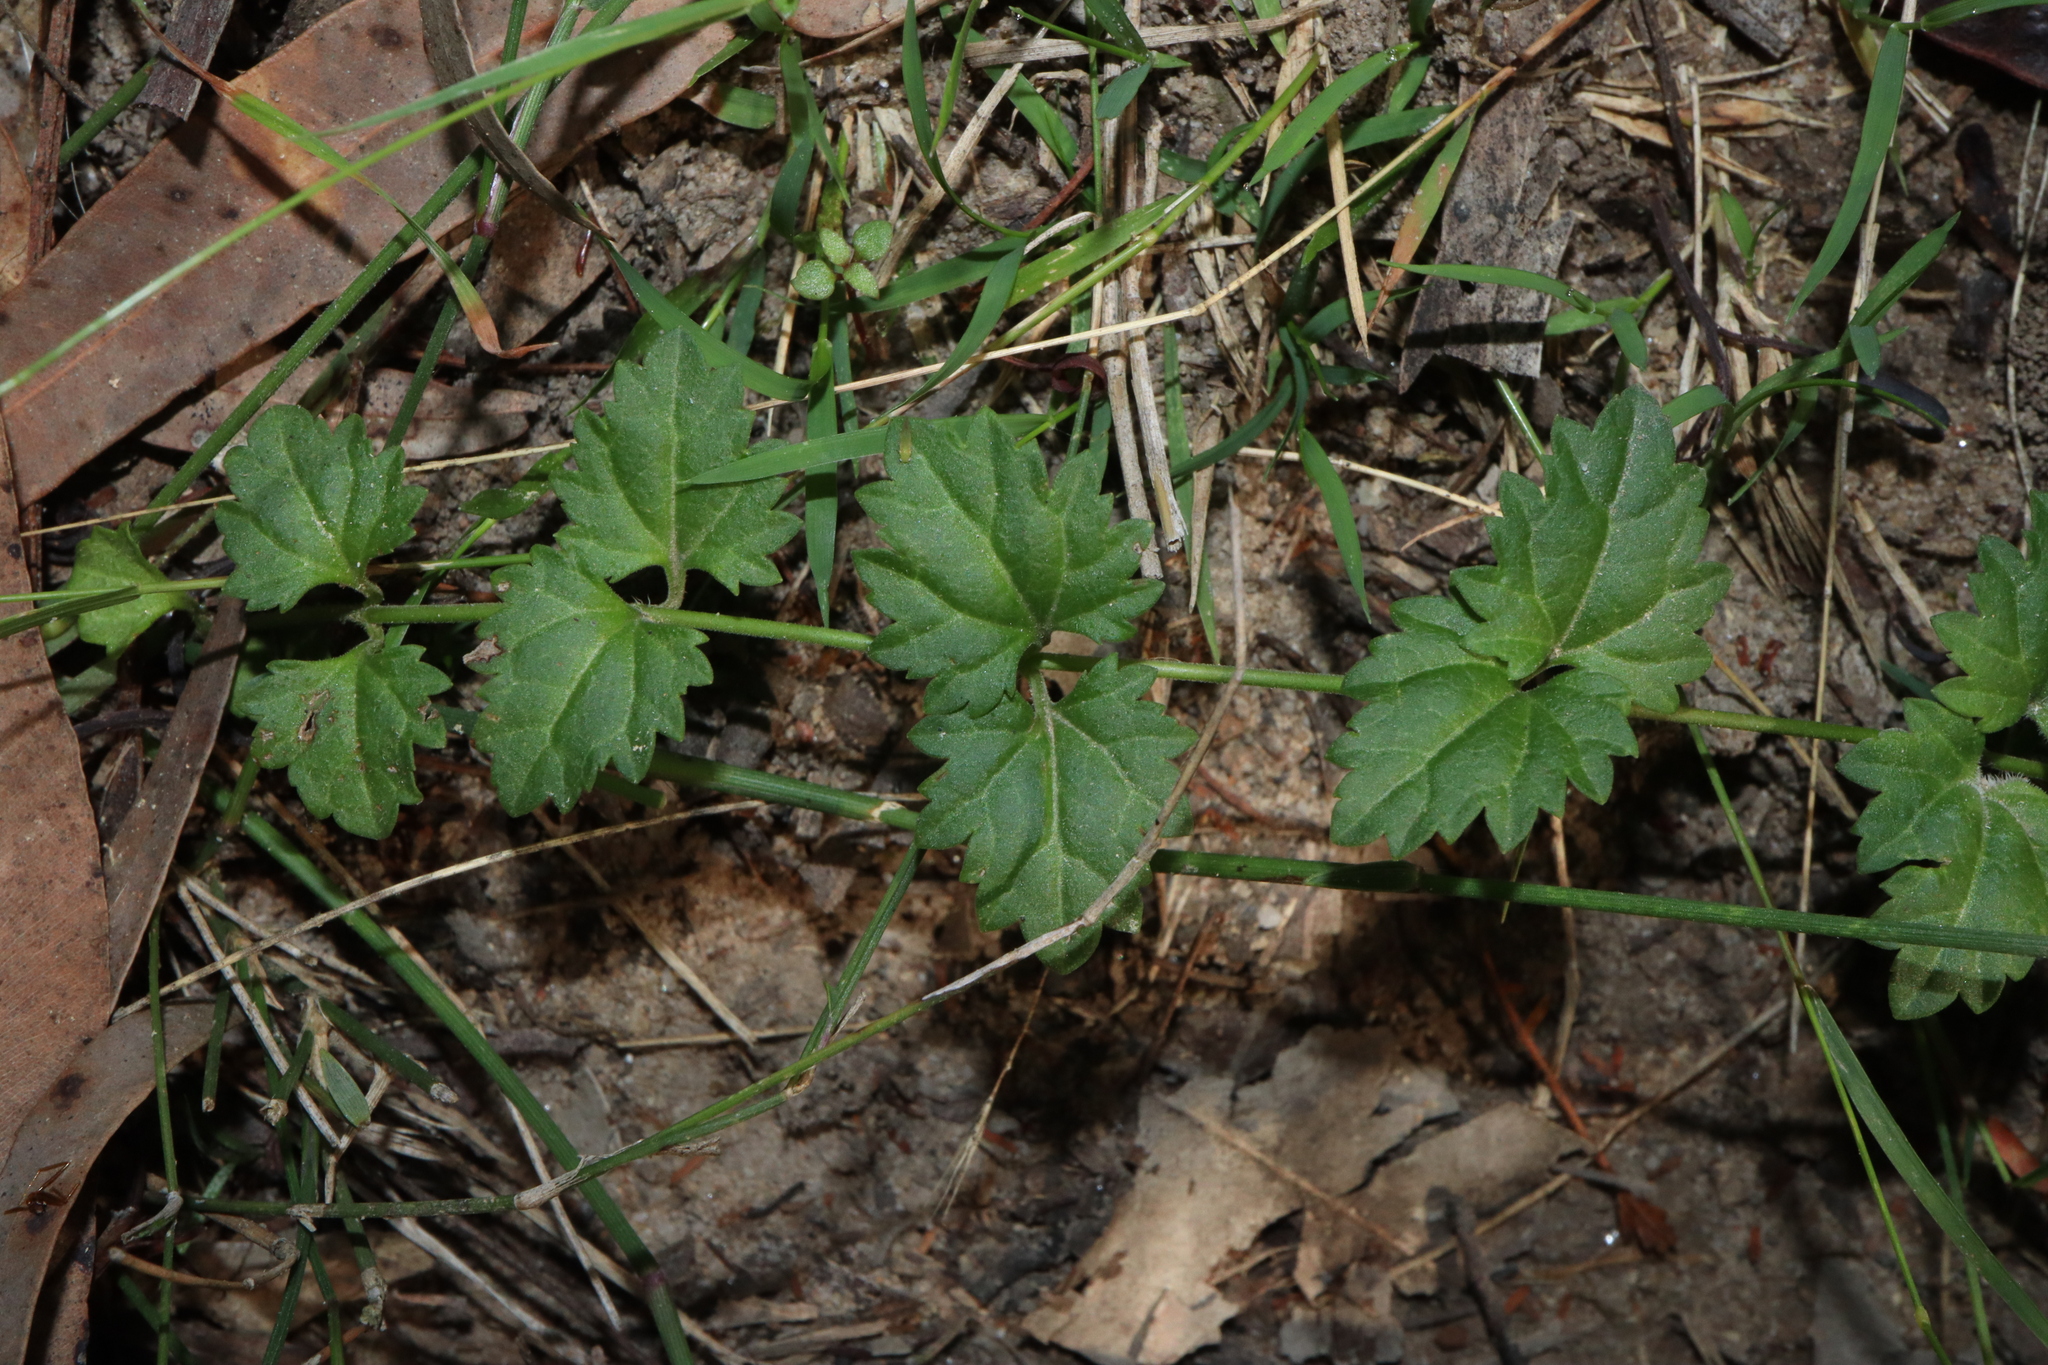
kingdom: Plantae
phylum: Tracheophyta
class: Magnoliopsida
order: Lamiales
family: Plantaginaceae
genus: Veronica
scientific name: Veronica plebeia
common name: Speedwell
